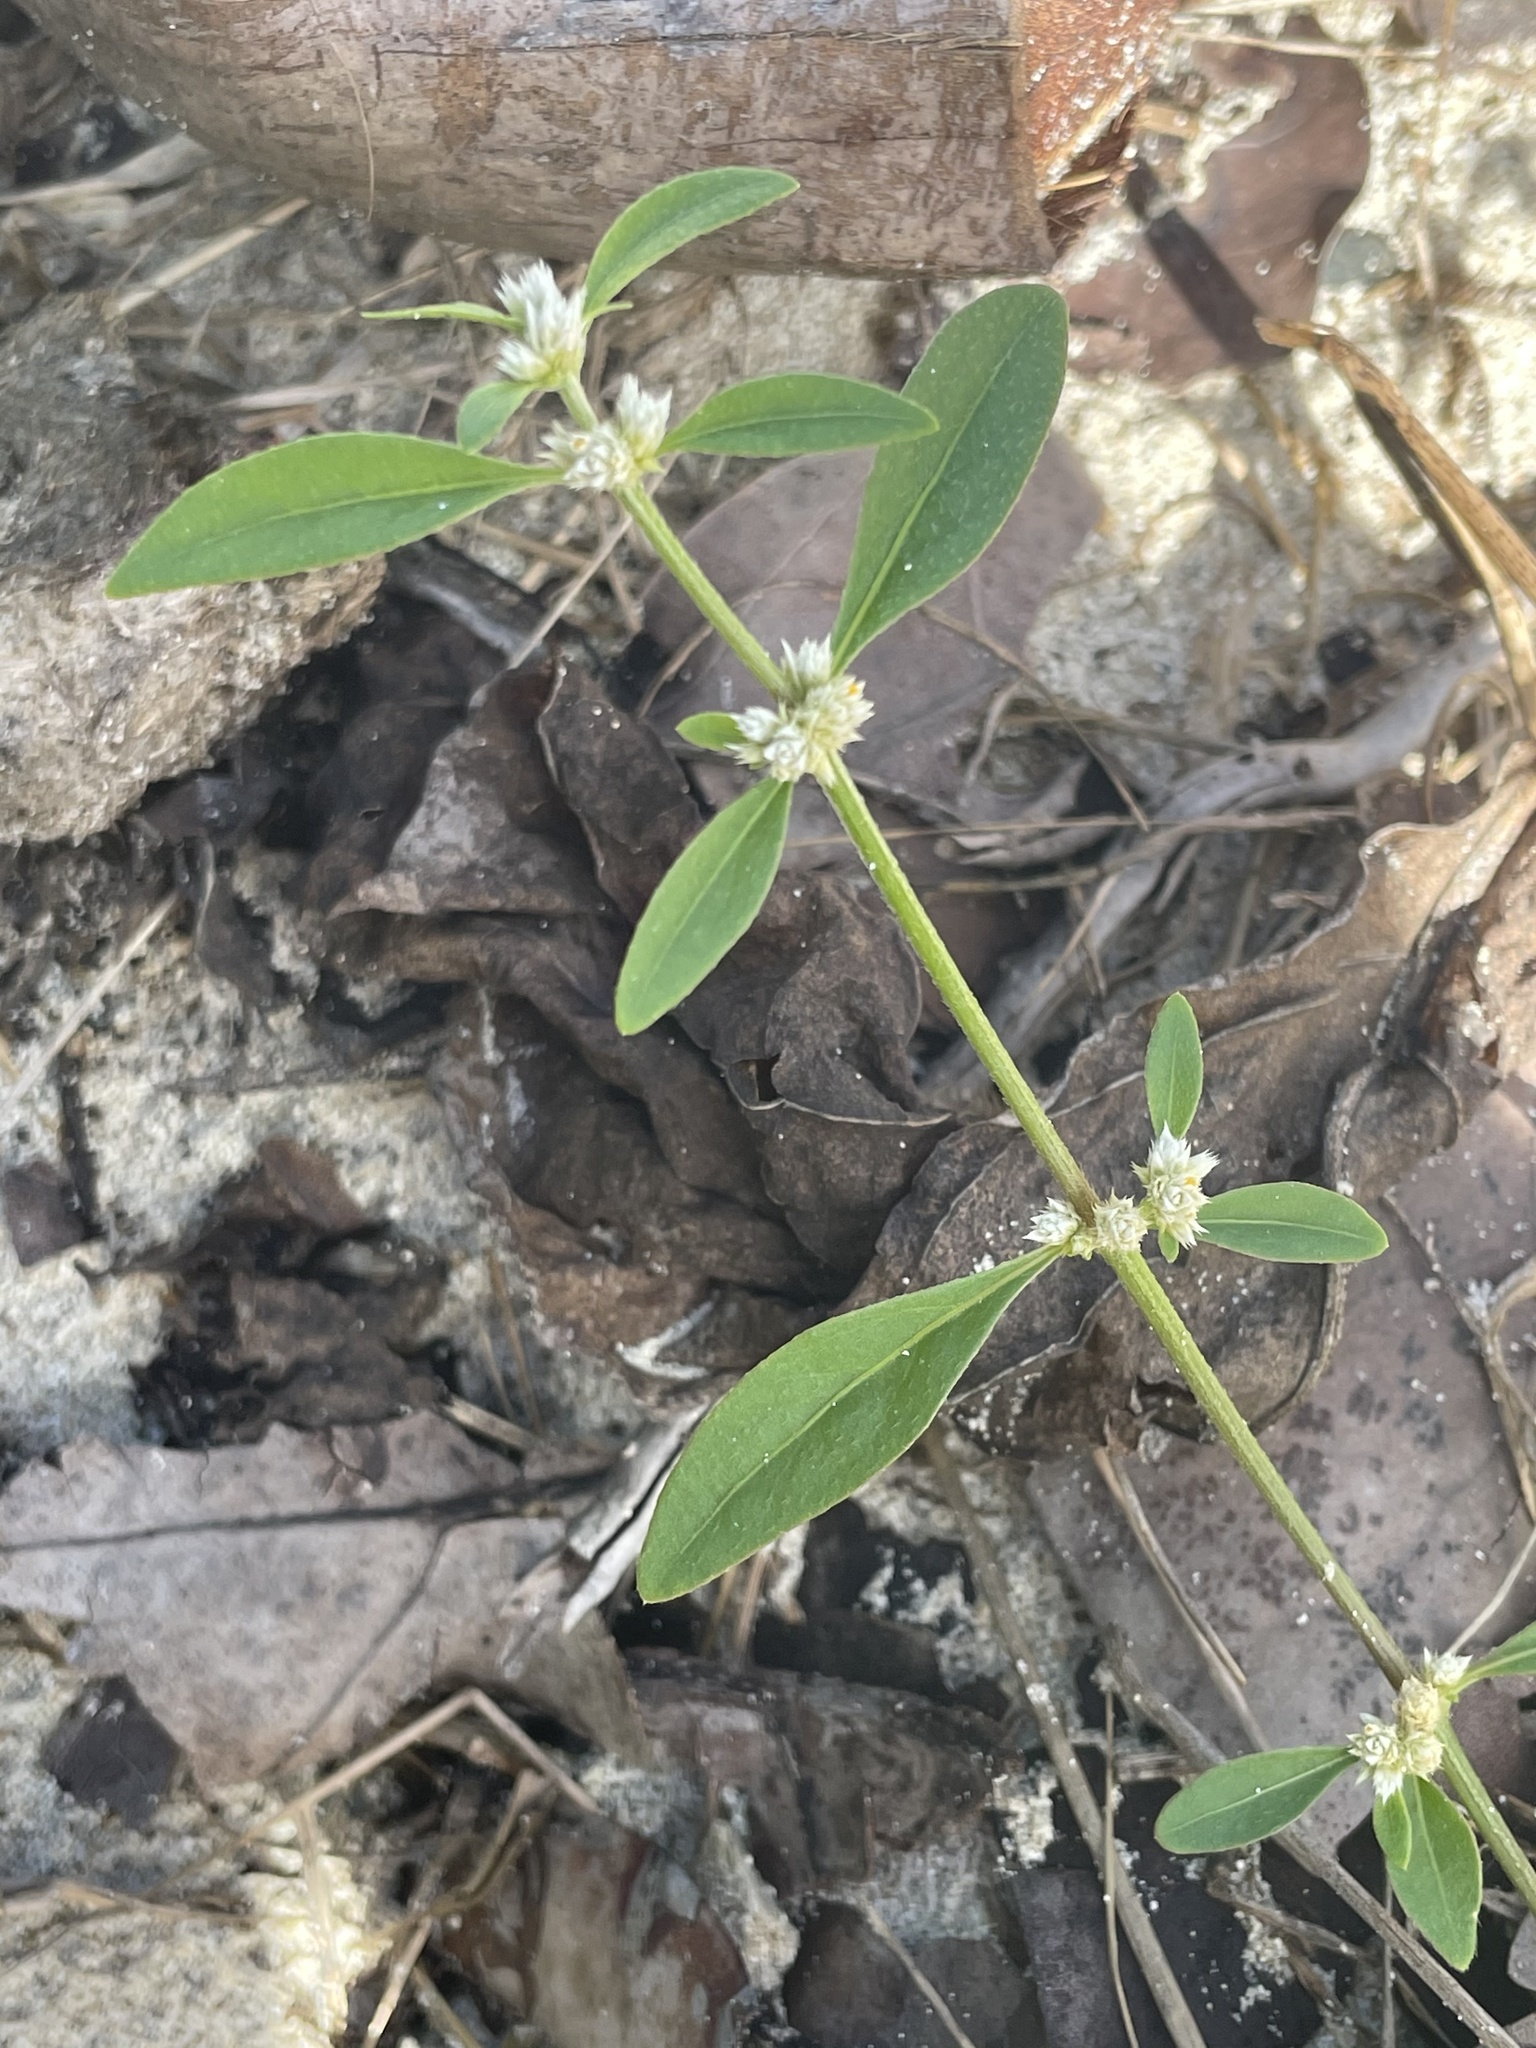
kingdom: Plantae
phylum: Tracheophyta
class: Magnoliopsida
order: Caryophyllales
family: Amaranthaceae
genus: Alternanthera
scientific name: Alternanthera ficoidea
